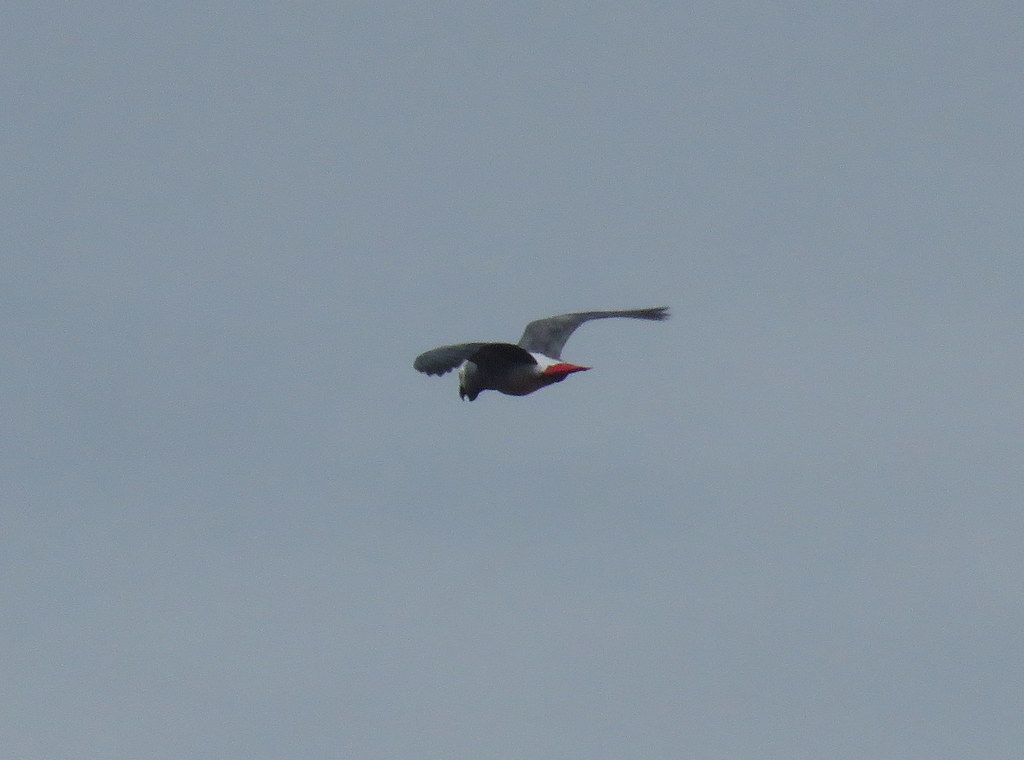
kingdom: Animalia
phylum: Chordata
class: Aves
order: Psittaciformes
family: Psittacidae
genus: Psittacus
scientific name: Psittacus erithacus
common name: Grey parrot
